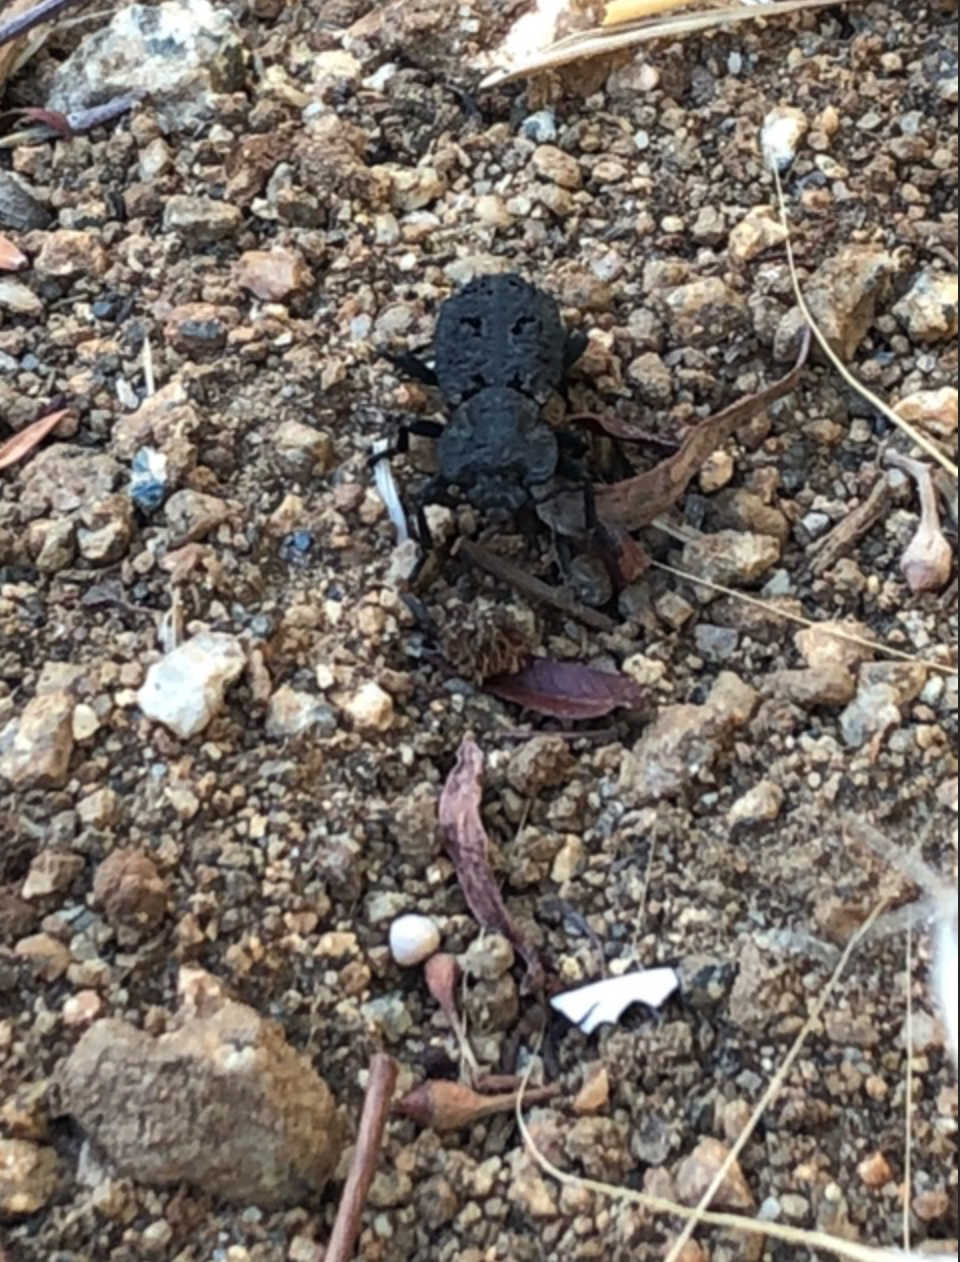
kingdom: Animalia
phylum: Arthropoda
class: Insecta
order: Coleoptera
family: Zopheridae
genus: Phloeodes
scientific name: Phloeodes diabolicus
